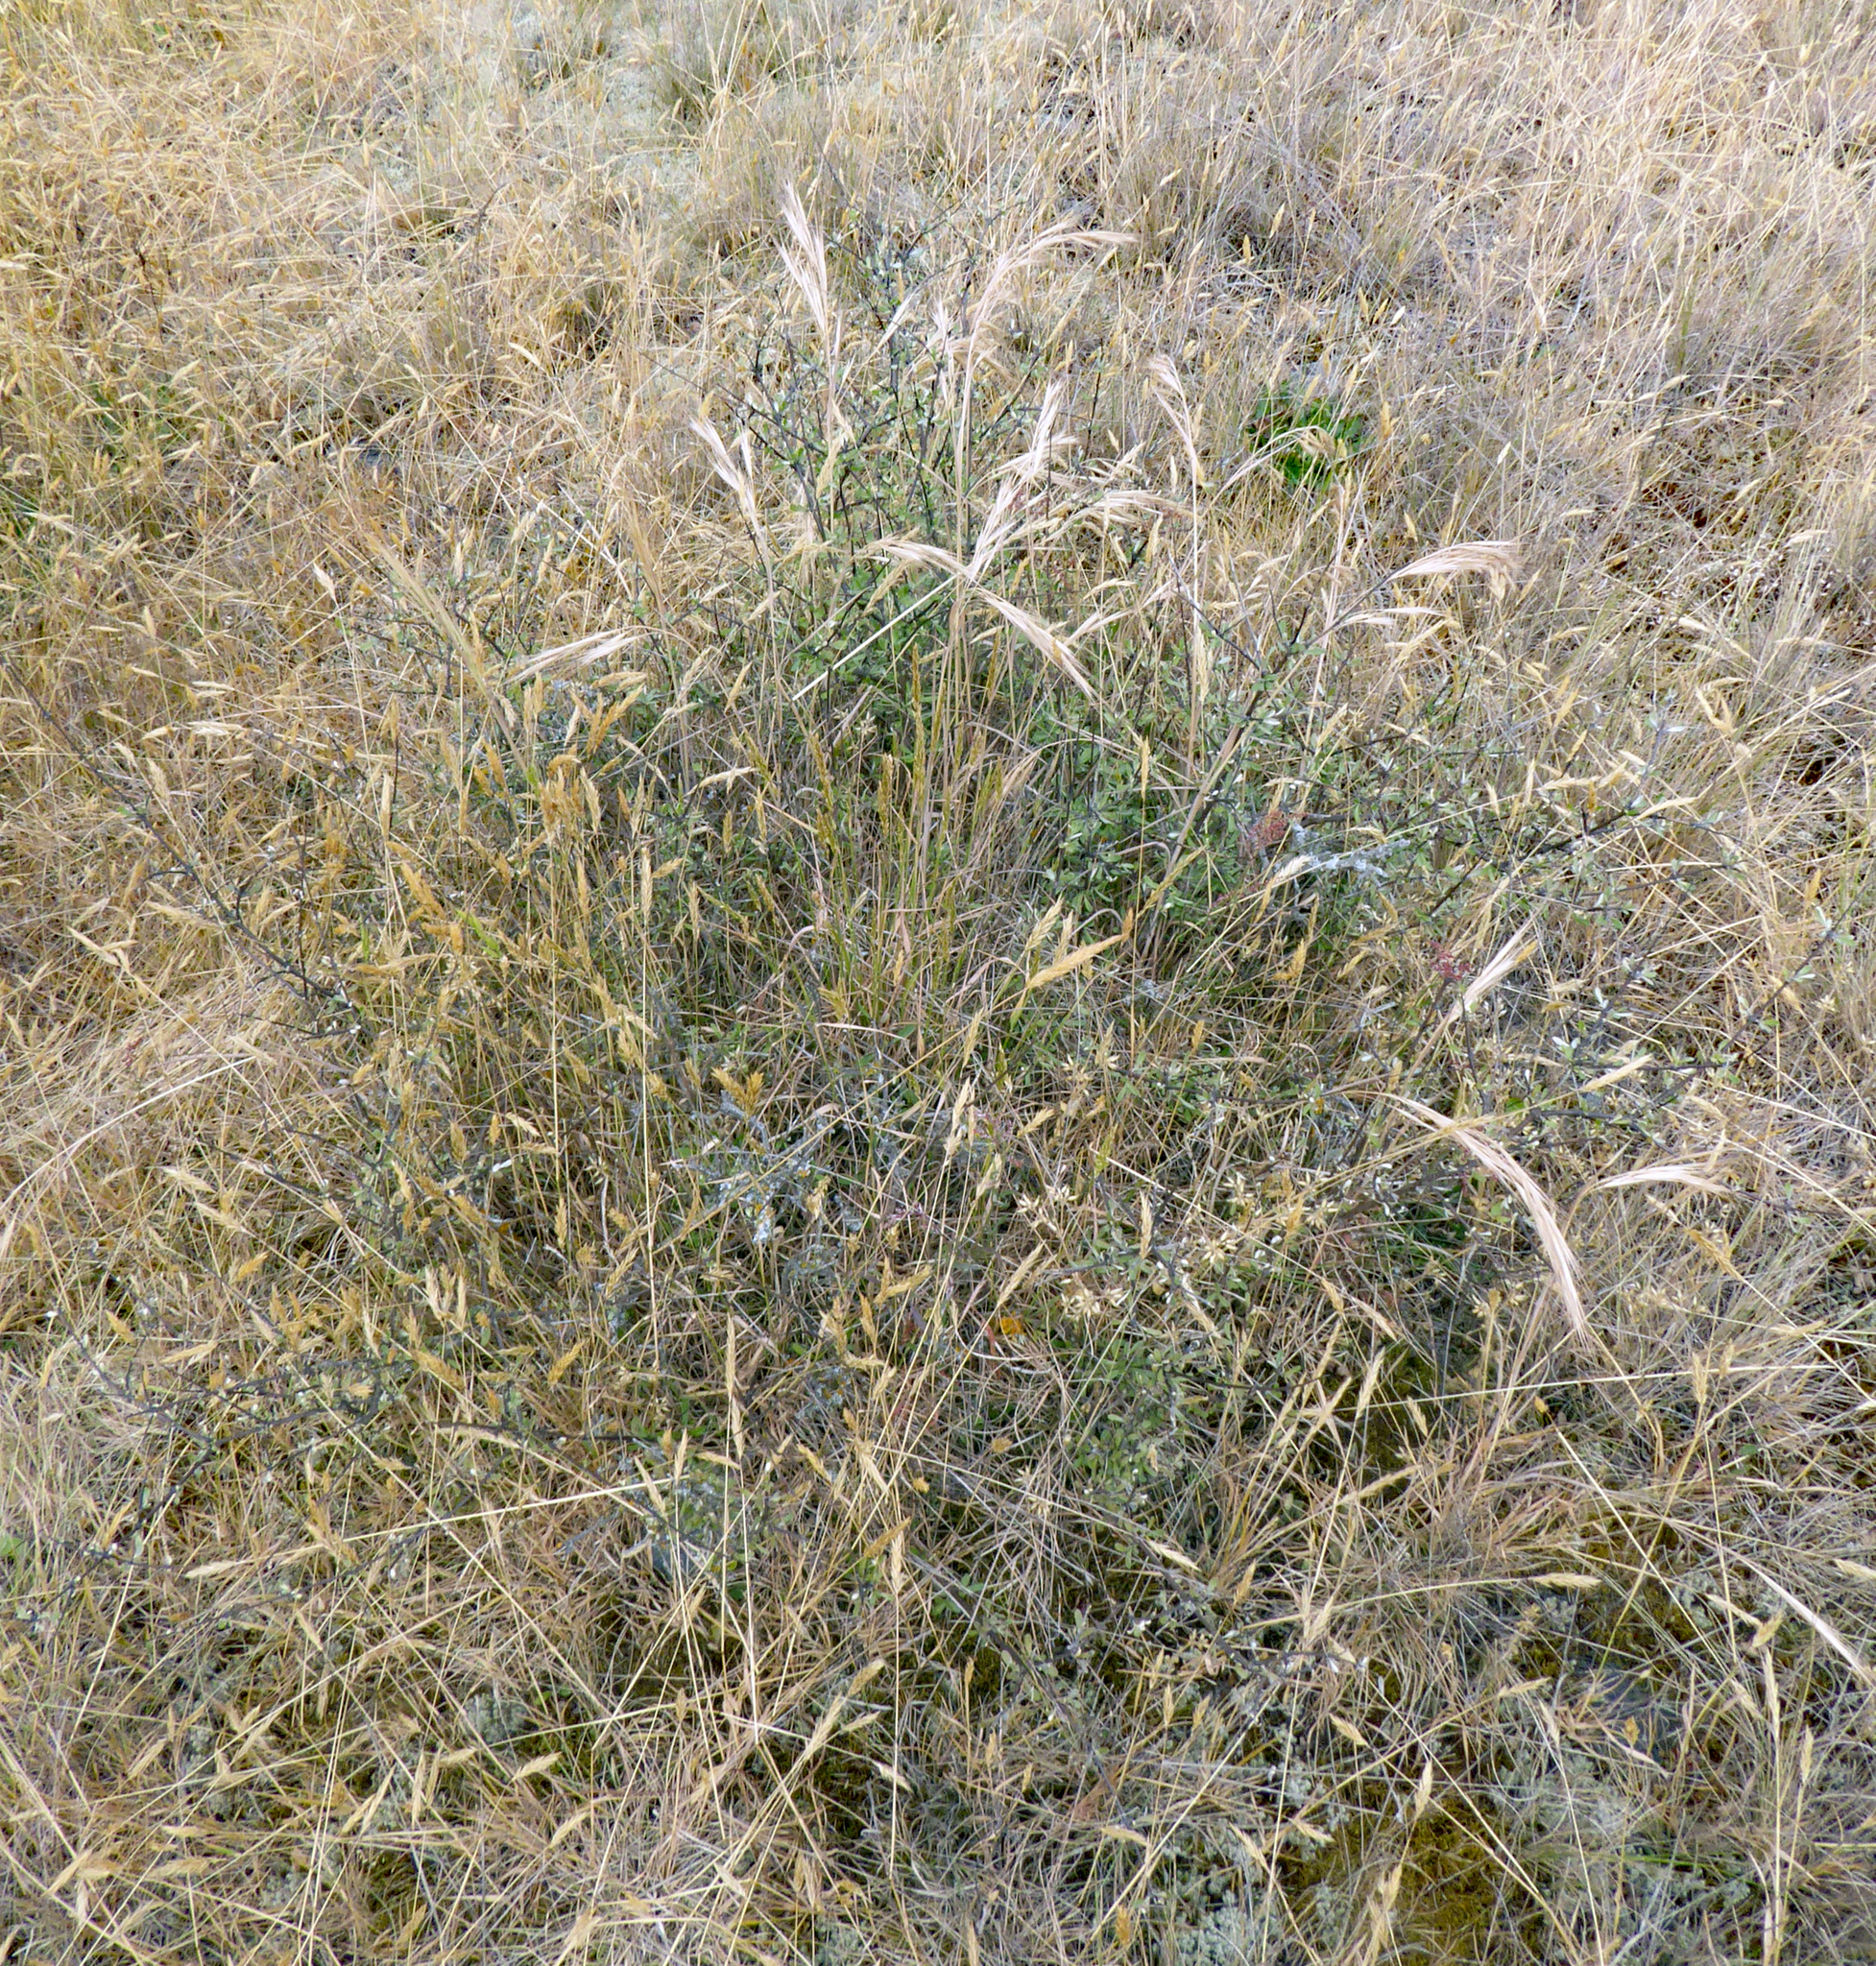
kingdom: Plantae
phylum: Tracheophyta
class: Magnoliopsida
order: Asterales
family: Asteraceae
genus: Olearia
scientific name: Olearia adenocarpa
